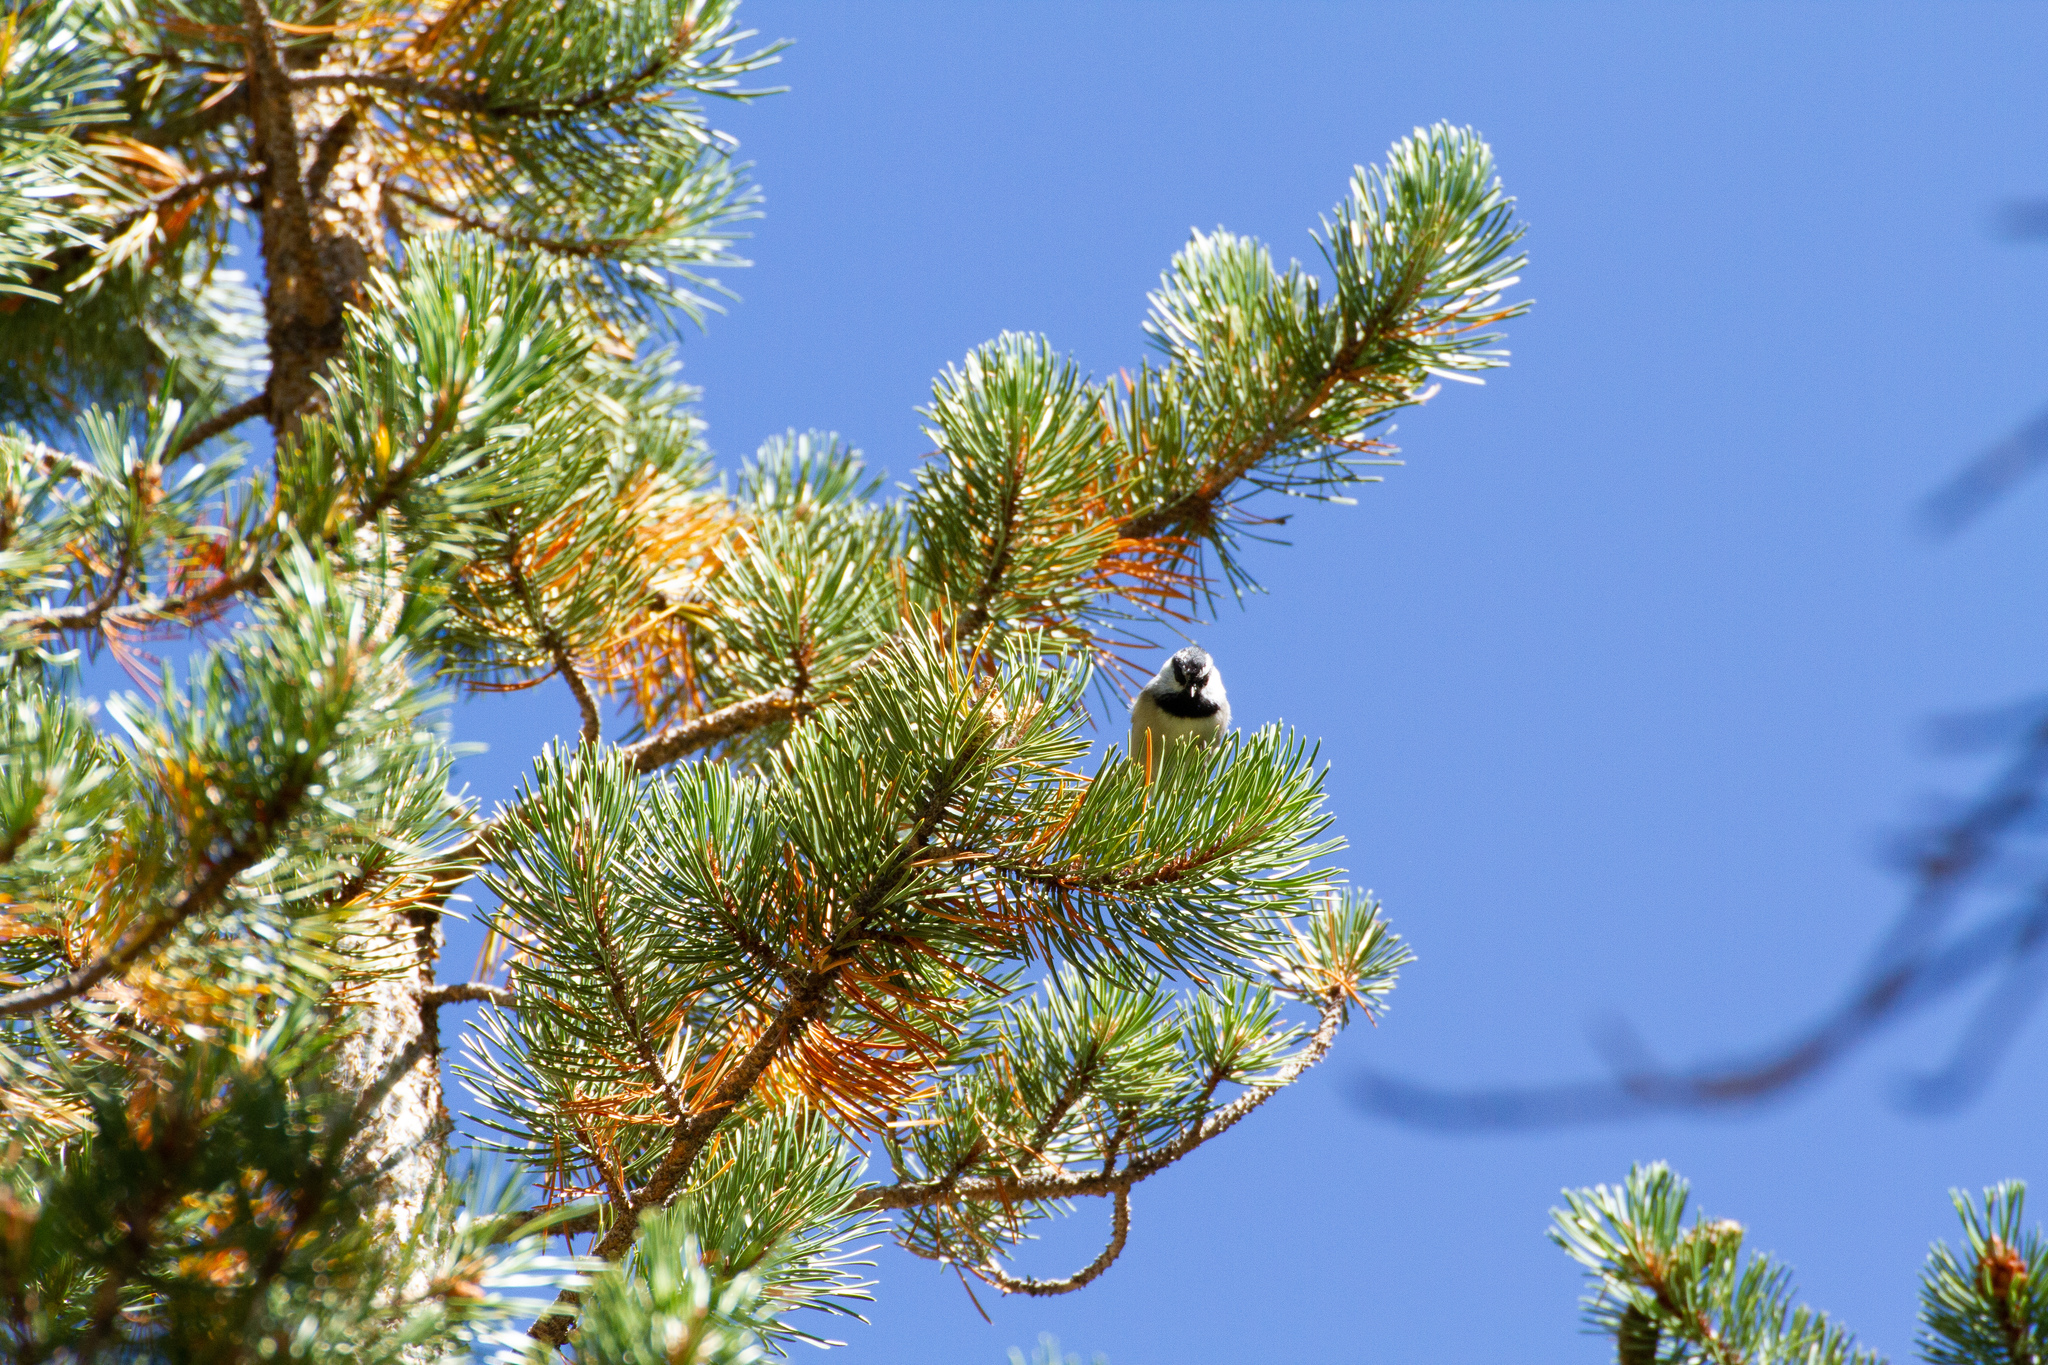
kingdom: Animalia
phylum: Chordata
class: Aves
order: Passeriformes
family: Paridae
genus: Poecile
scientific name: Poecile gambeli
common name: Mountain chickadee
